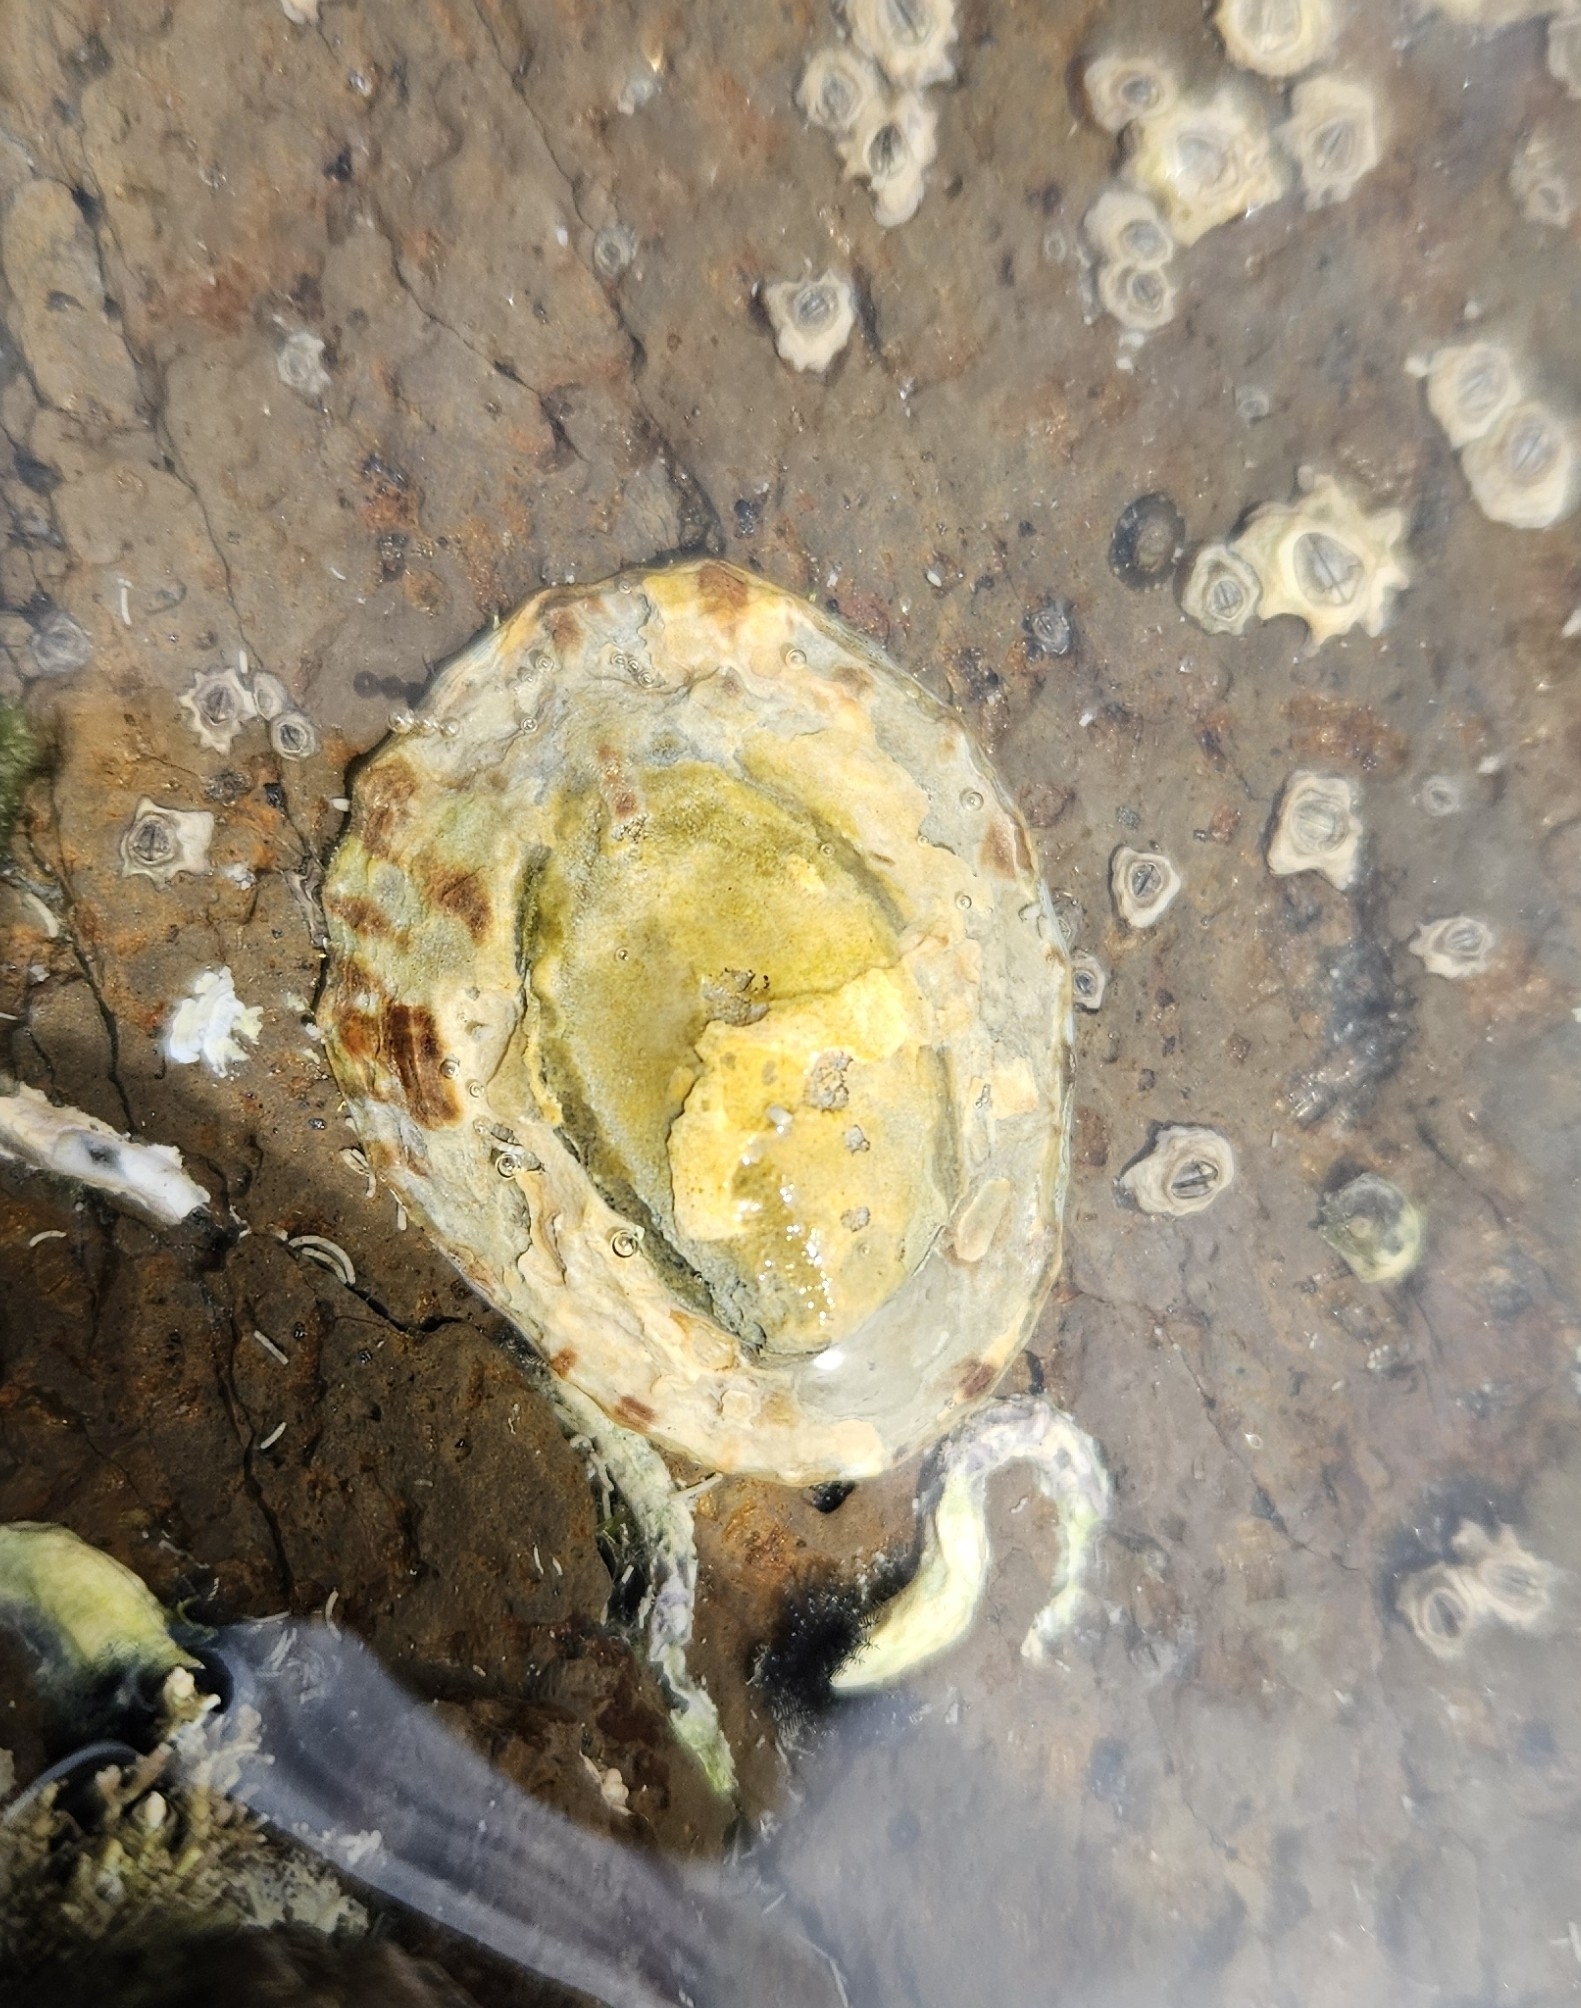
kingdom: Animalia
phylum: Mollusca
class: Gastropoda
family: Nacellidae
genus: Cellana
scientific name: Cellana ornata
